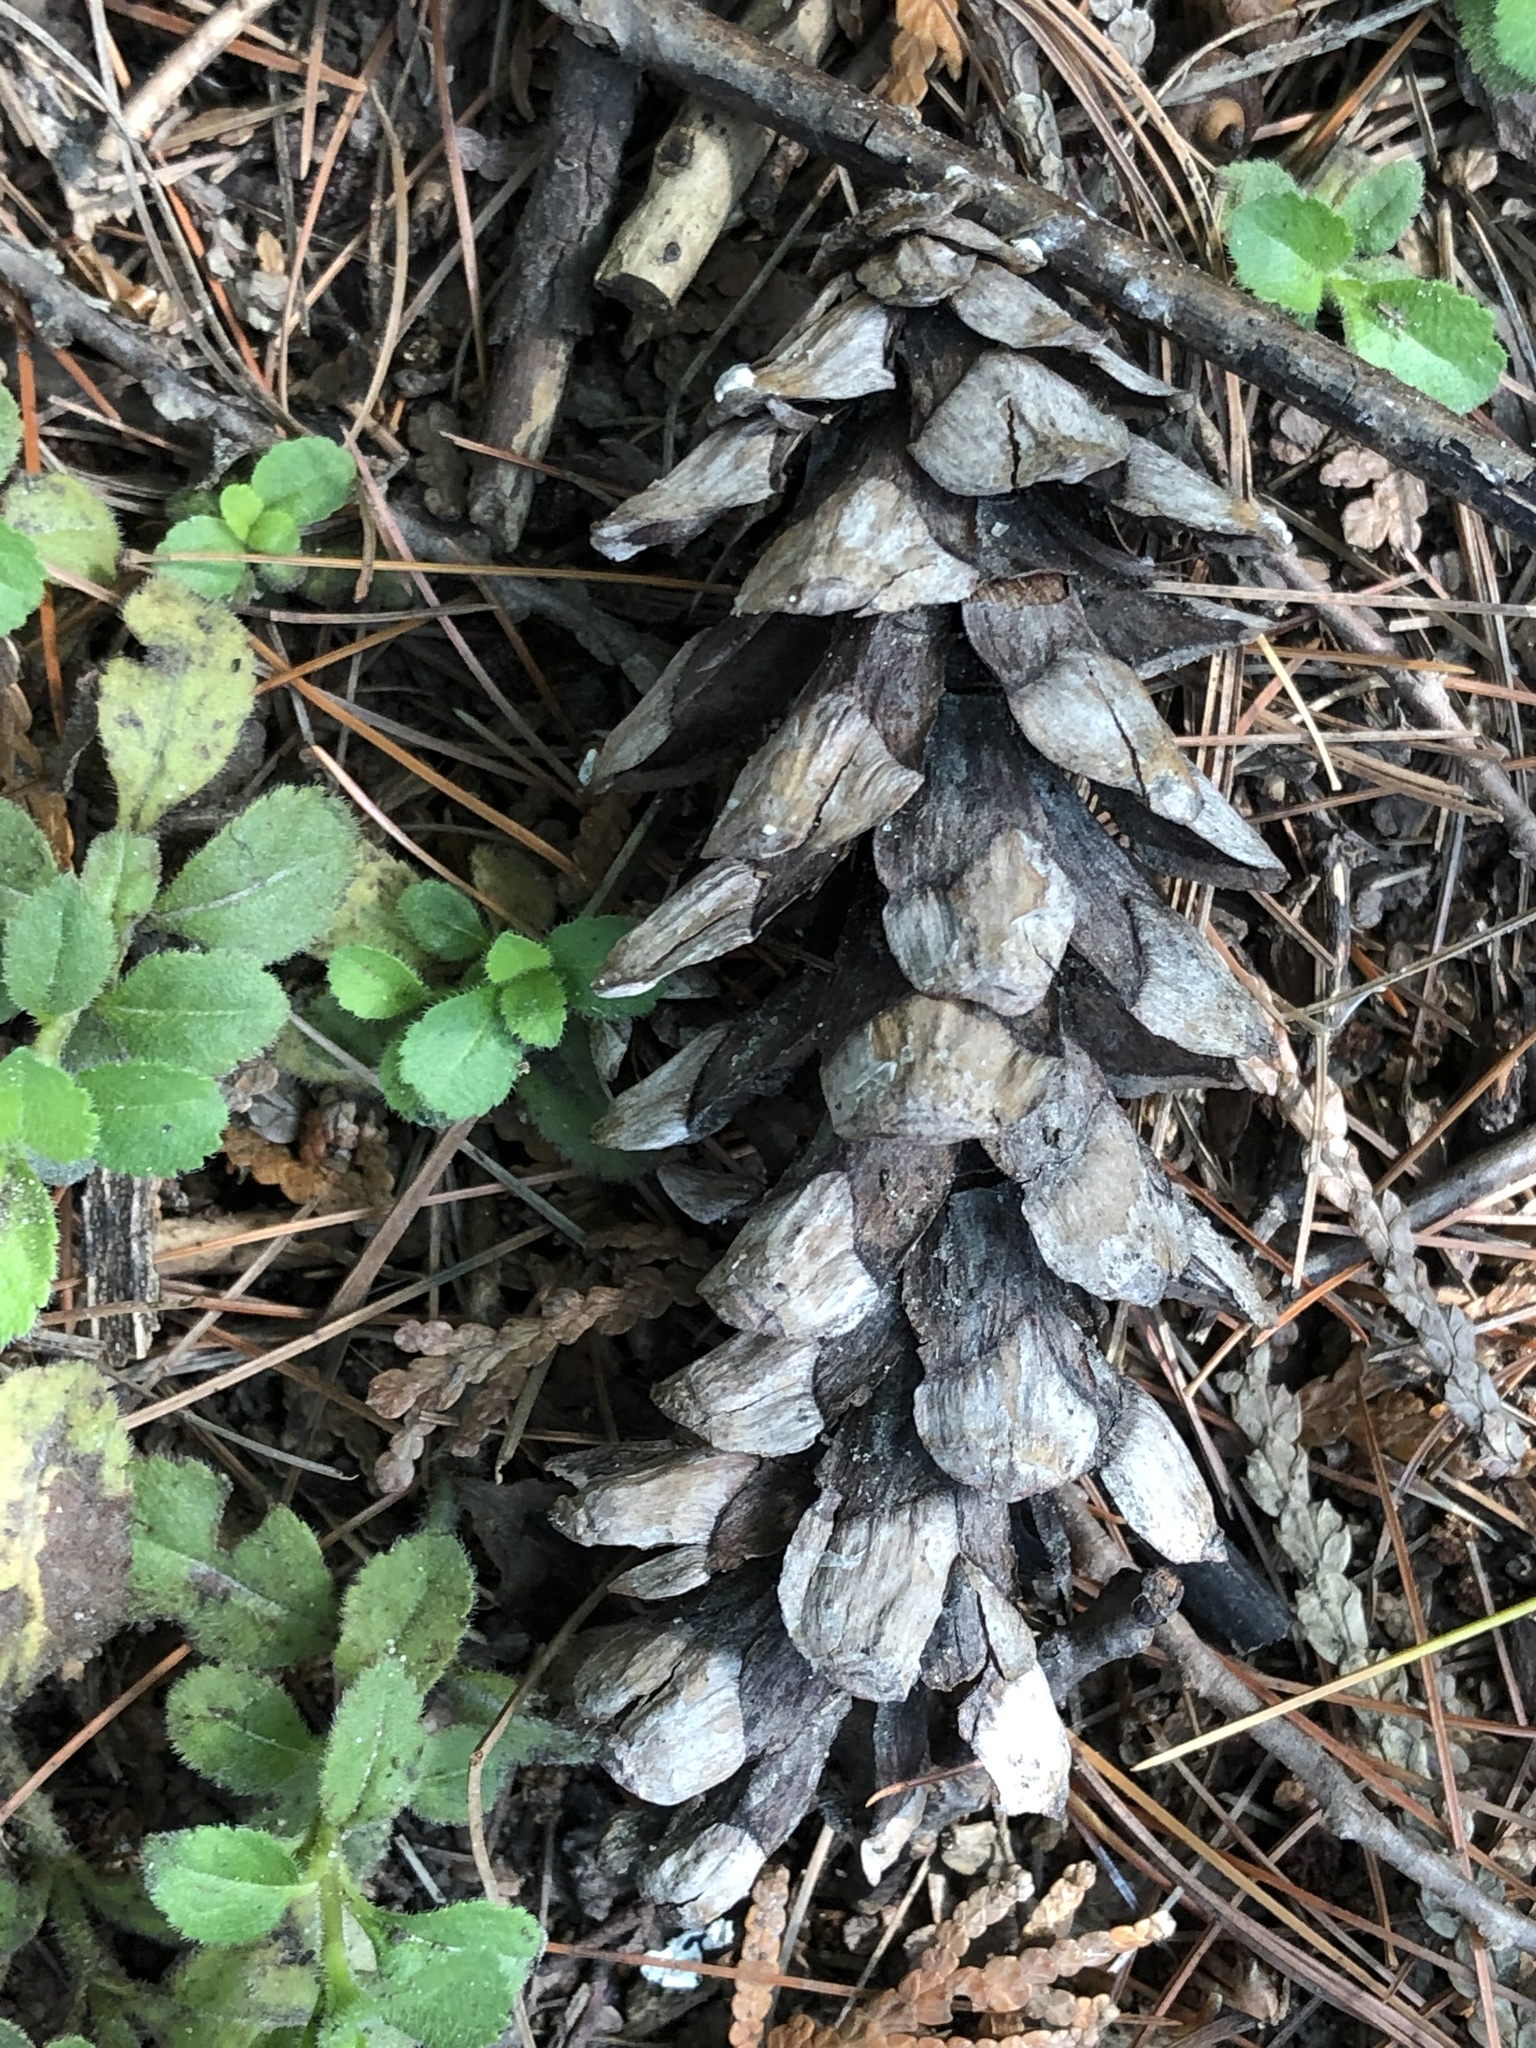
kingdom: Plantae
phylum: Tracheophyta
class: Pinopsida
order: Pinales
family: Pinaceae
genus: Pinus
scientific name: Pinus strobus
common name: Weymouth pine
